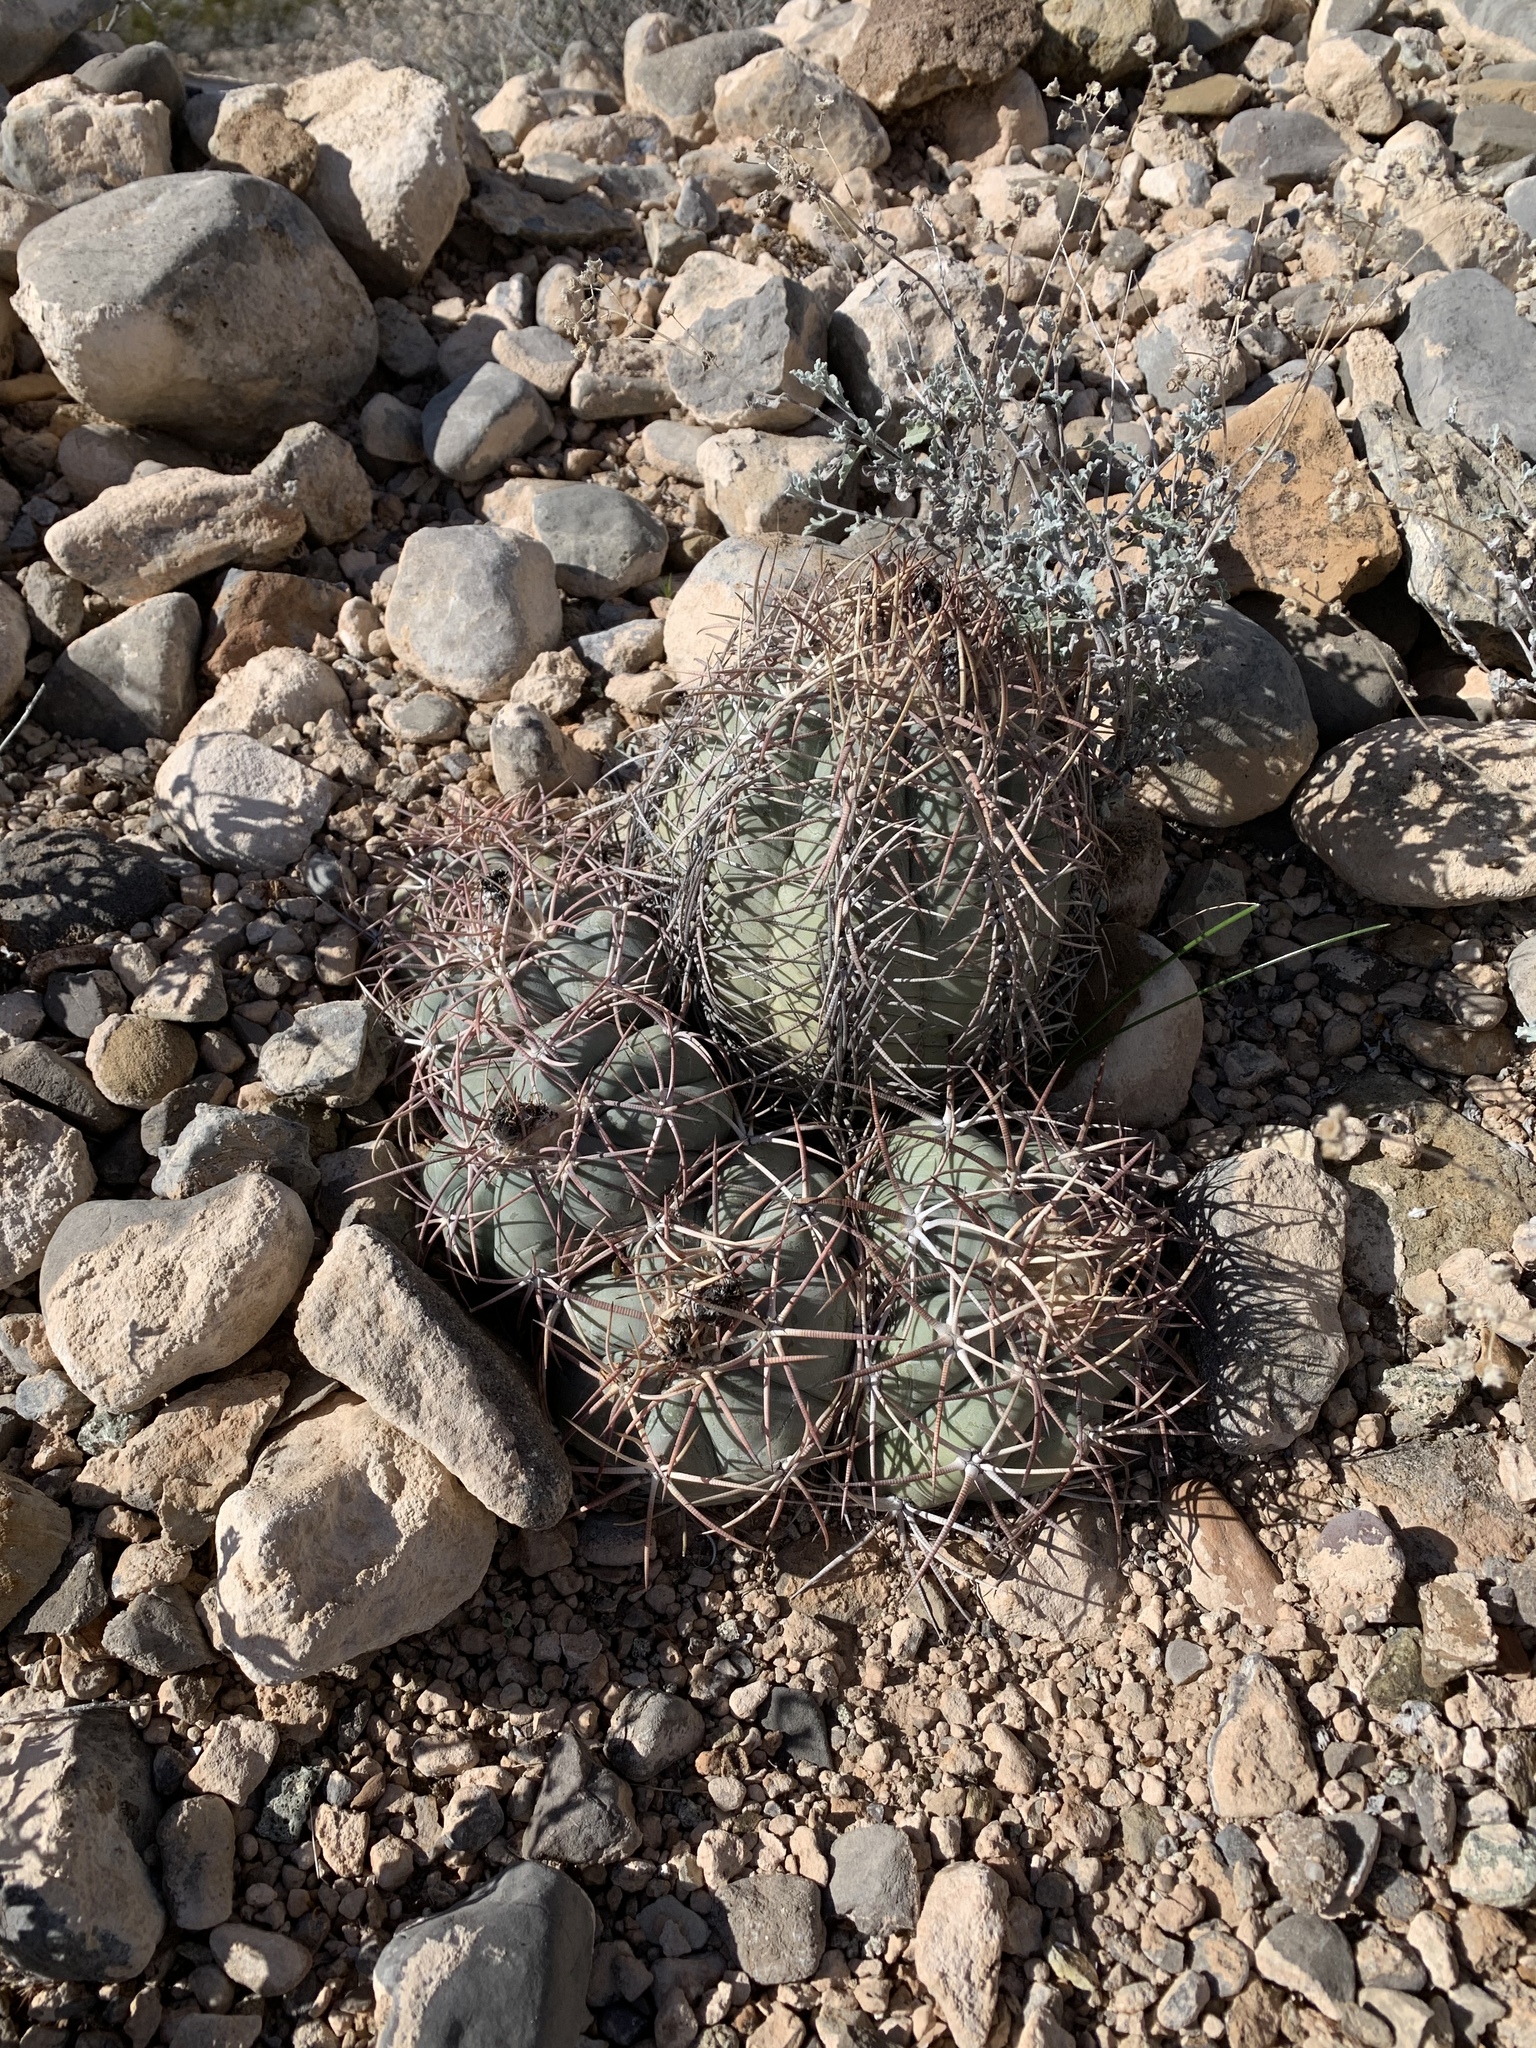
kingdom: Plantae
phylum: Tracheophyta
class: Magnoliopsida
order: Caryophyllales
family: Cactaceae
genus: Echinocactus
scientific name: Echinocactus horizonthalonius
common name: Devilshead
